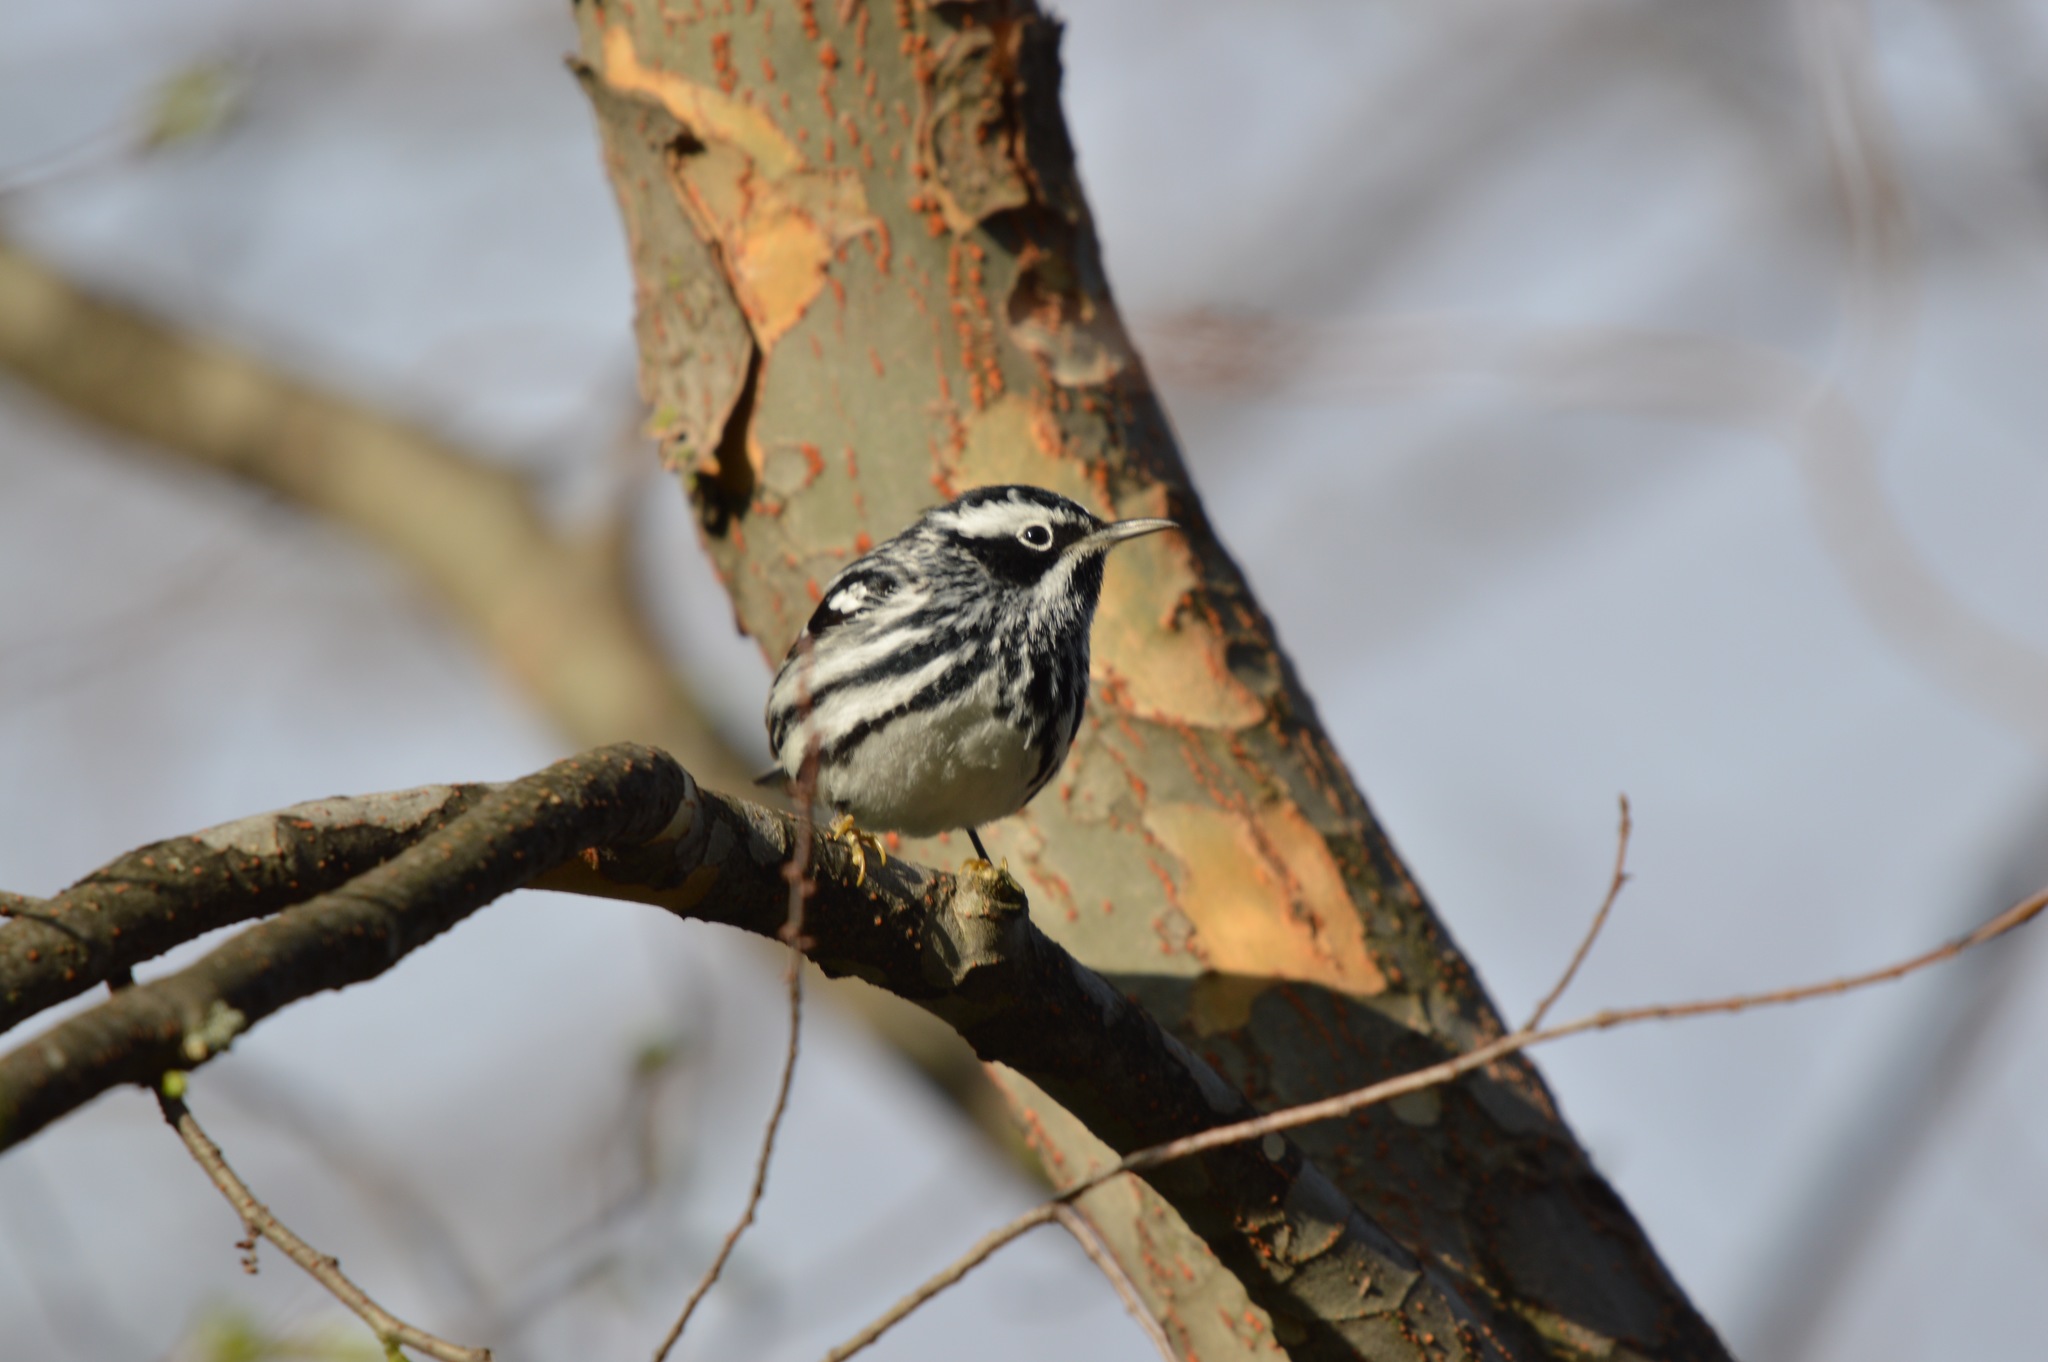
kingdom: Animalia
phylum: Chordata
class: Aves
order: Passeriformes
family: Parulidae
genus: Mniotilta
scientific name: Mniotilta varia
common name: Black-and-white warbler
